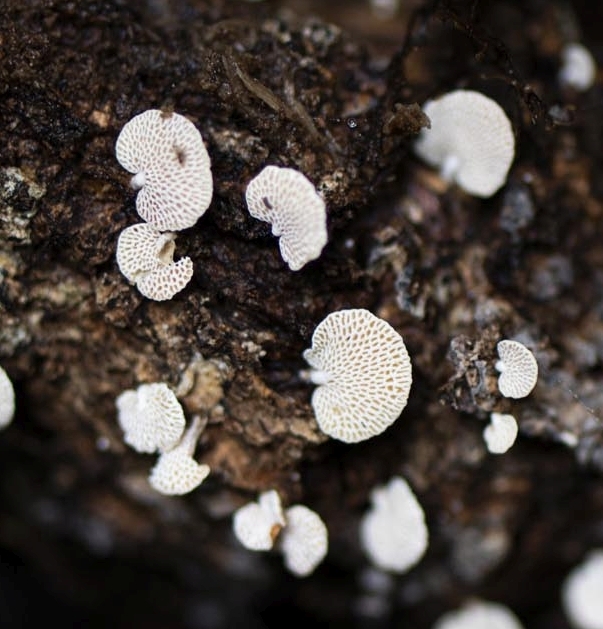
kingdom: Fungi
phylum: Basidiomycota
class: Agaricomycetes
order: Agaricales
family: Mycenaceae
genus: Panellus
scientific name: Panellus luxfilamentus
